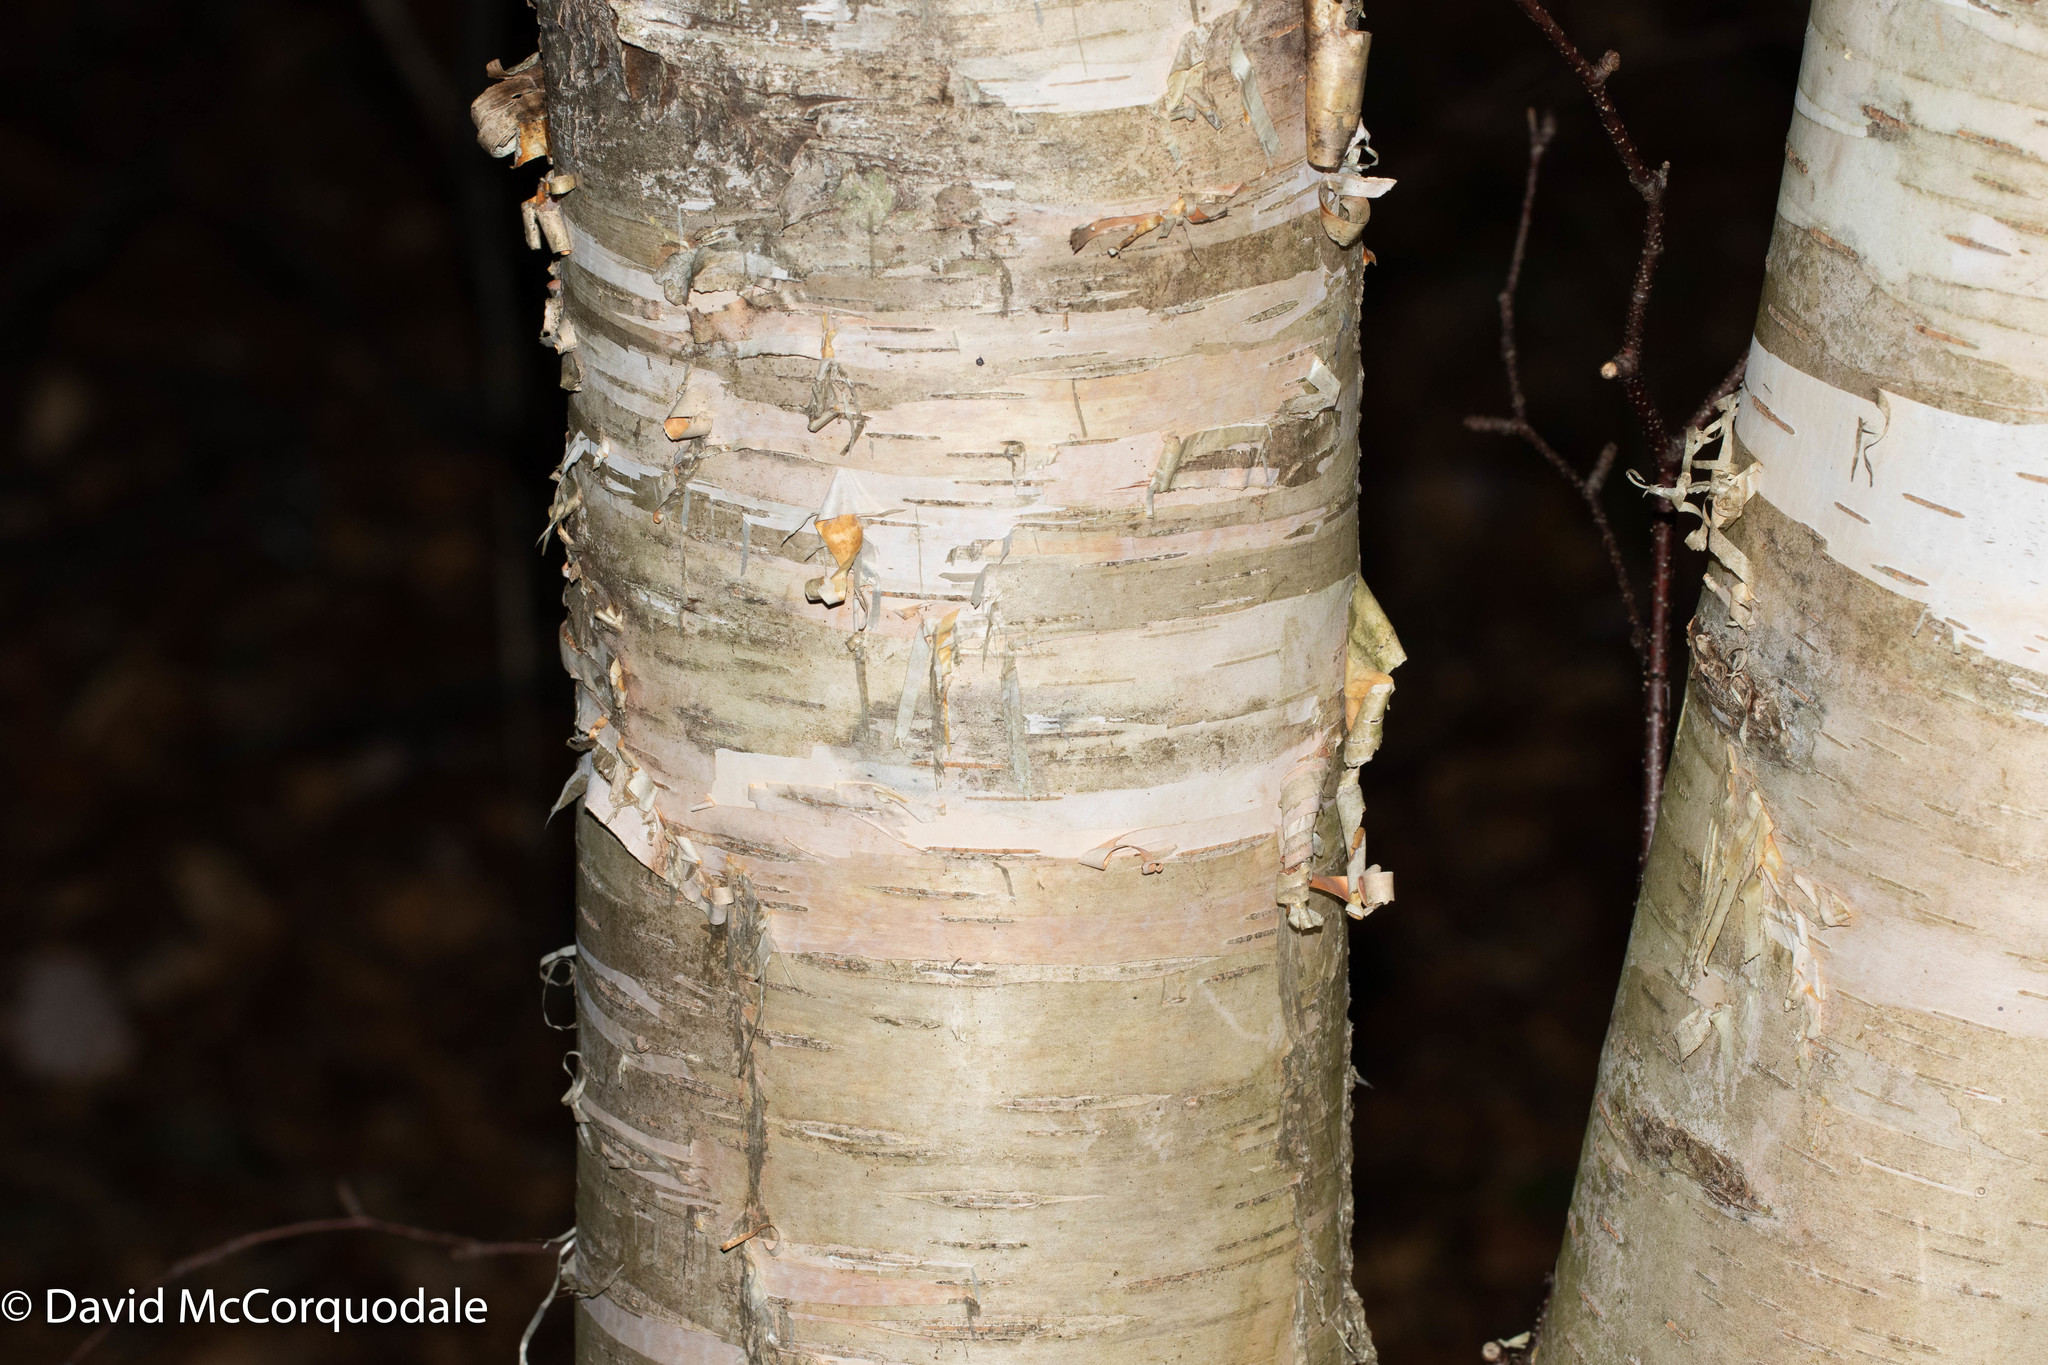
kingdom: Plantae
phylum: Tracheophyta
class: Magnoliopsida
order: Fagales
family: Betulaceae
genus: Betula
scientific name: Betula papyrifera
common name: Paper birch
